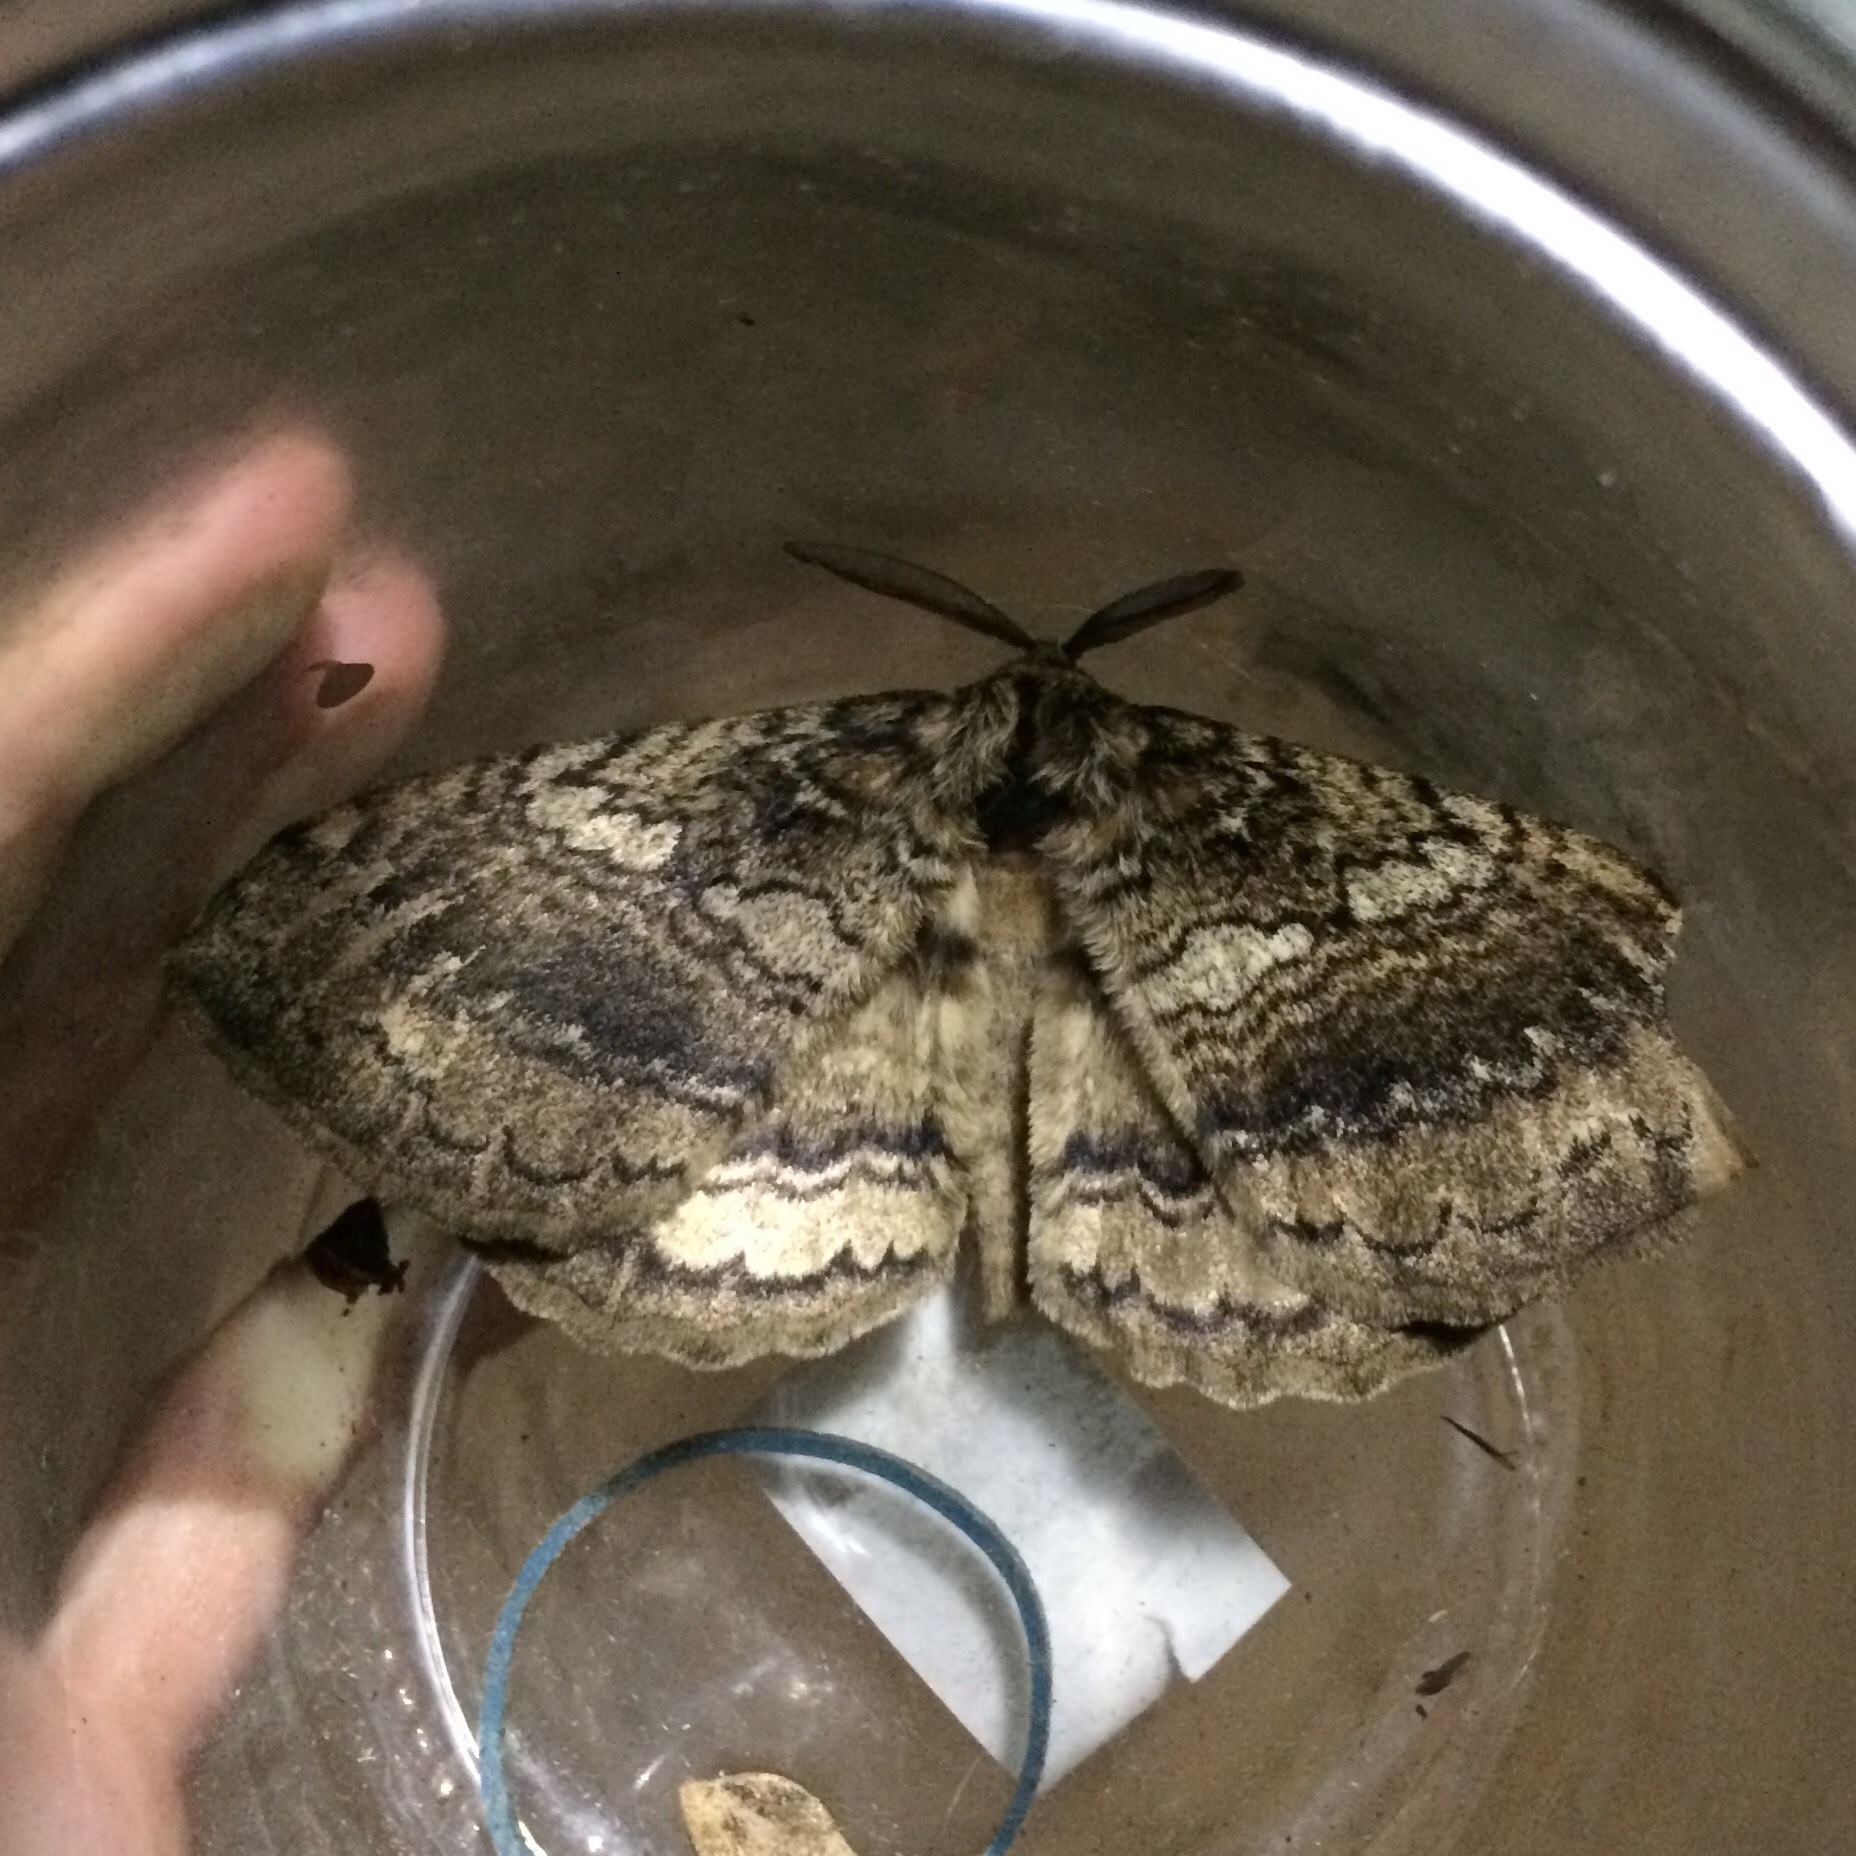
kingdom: Animalia
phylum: Arthropoda
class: Insecta
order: Lepidoptera
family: Eupterotidae
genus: Striphnopteryx
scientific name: Striphnopteryx edulis
